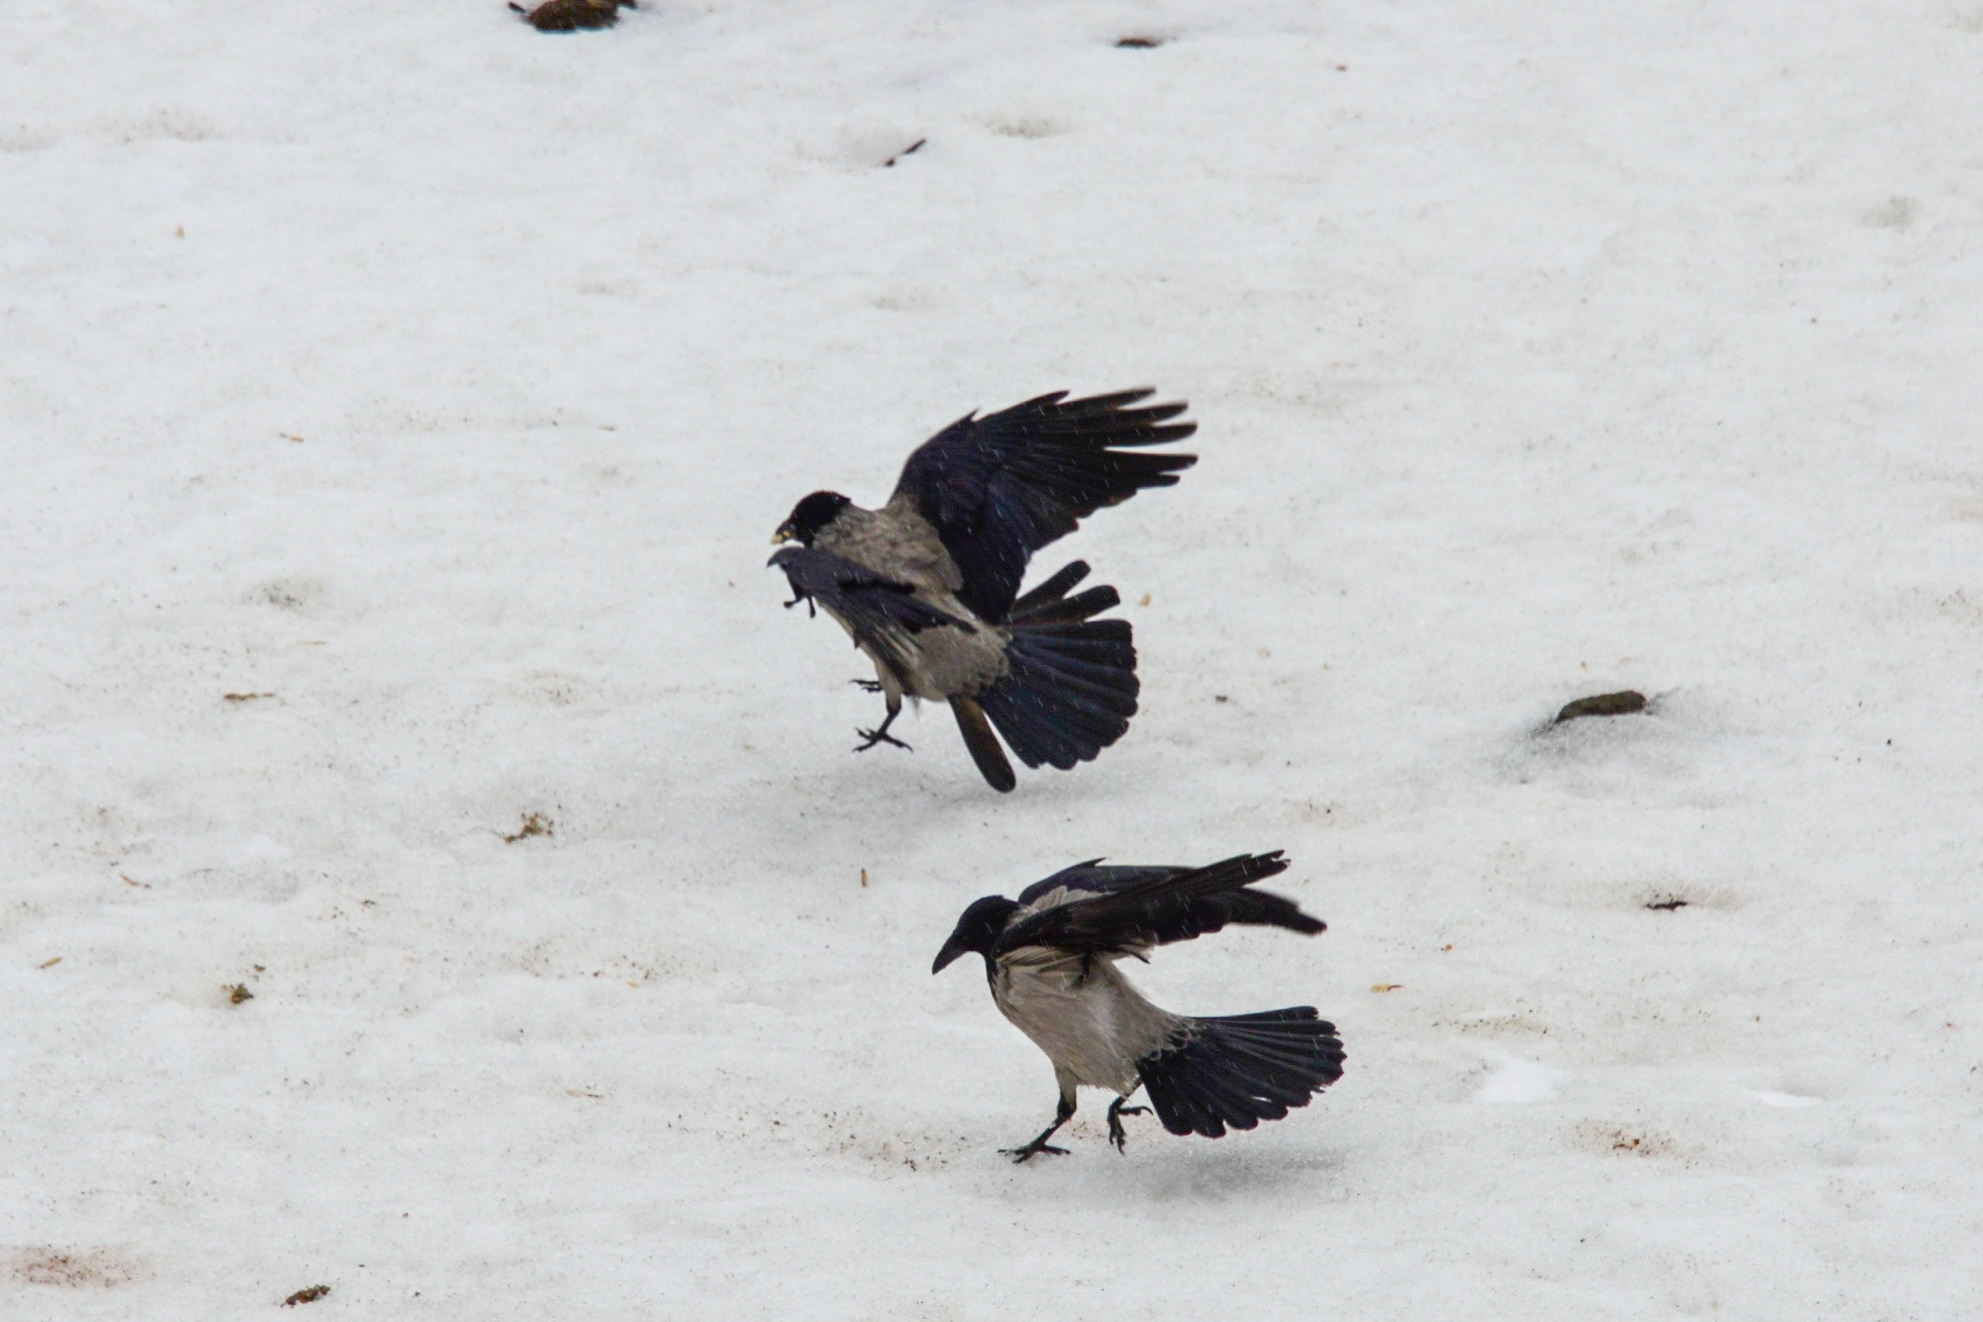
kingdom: Animalia
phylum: Chordata
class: Aves
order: Passeriformes
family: Corvidae
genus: Corvus
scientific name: Corvus cornix
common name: Hooded crow
